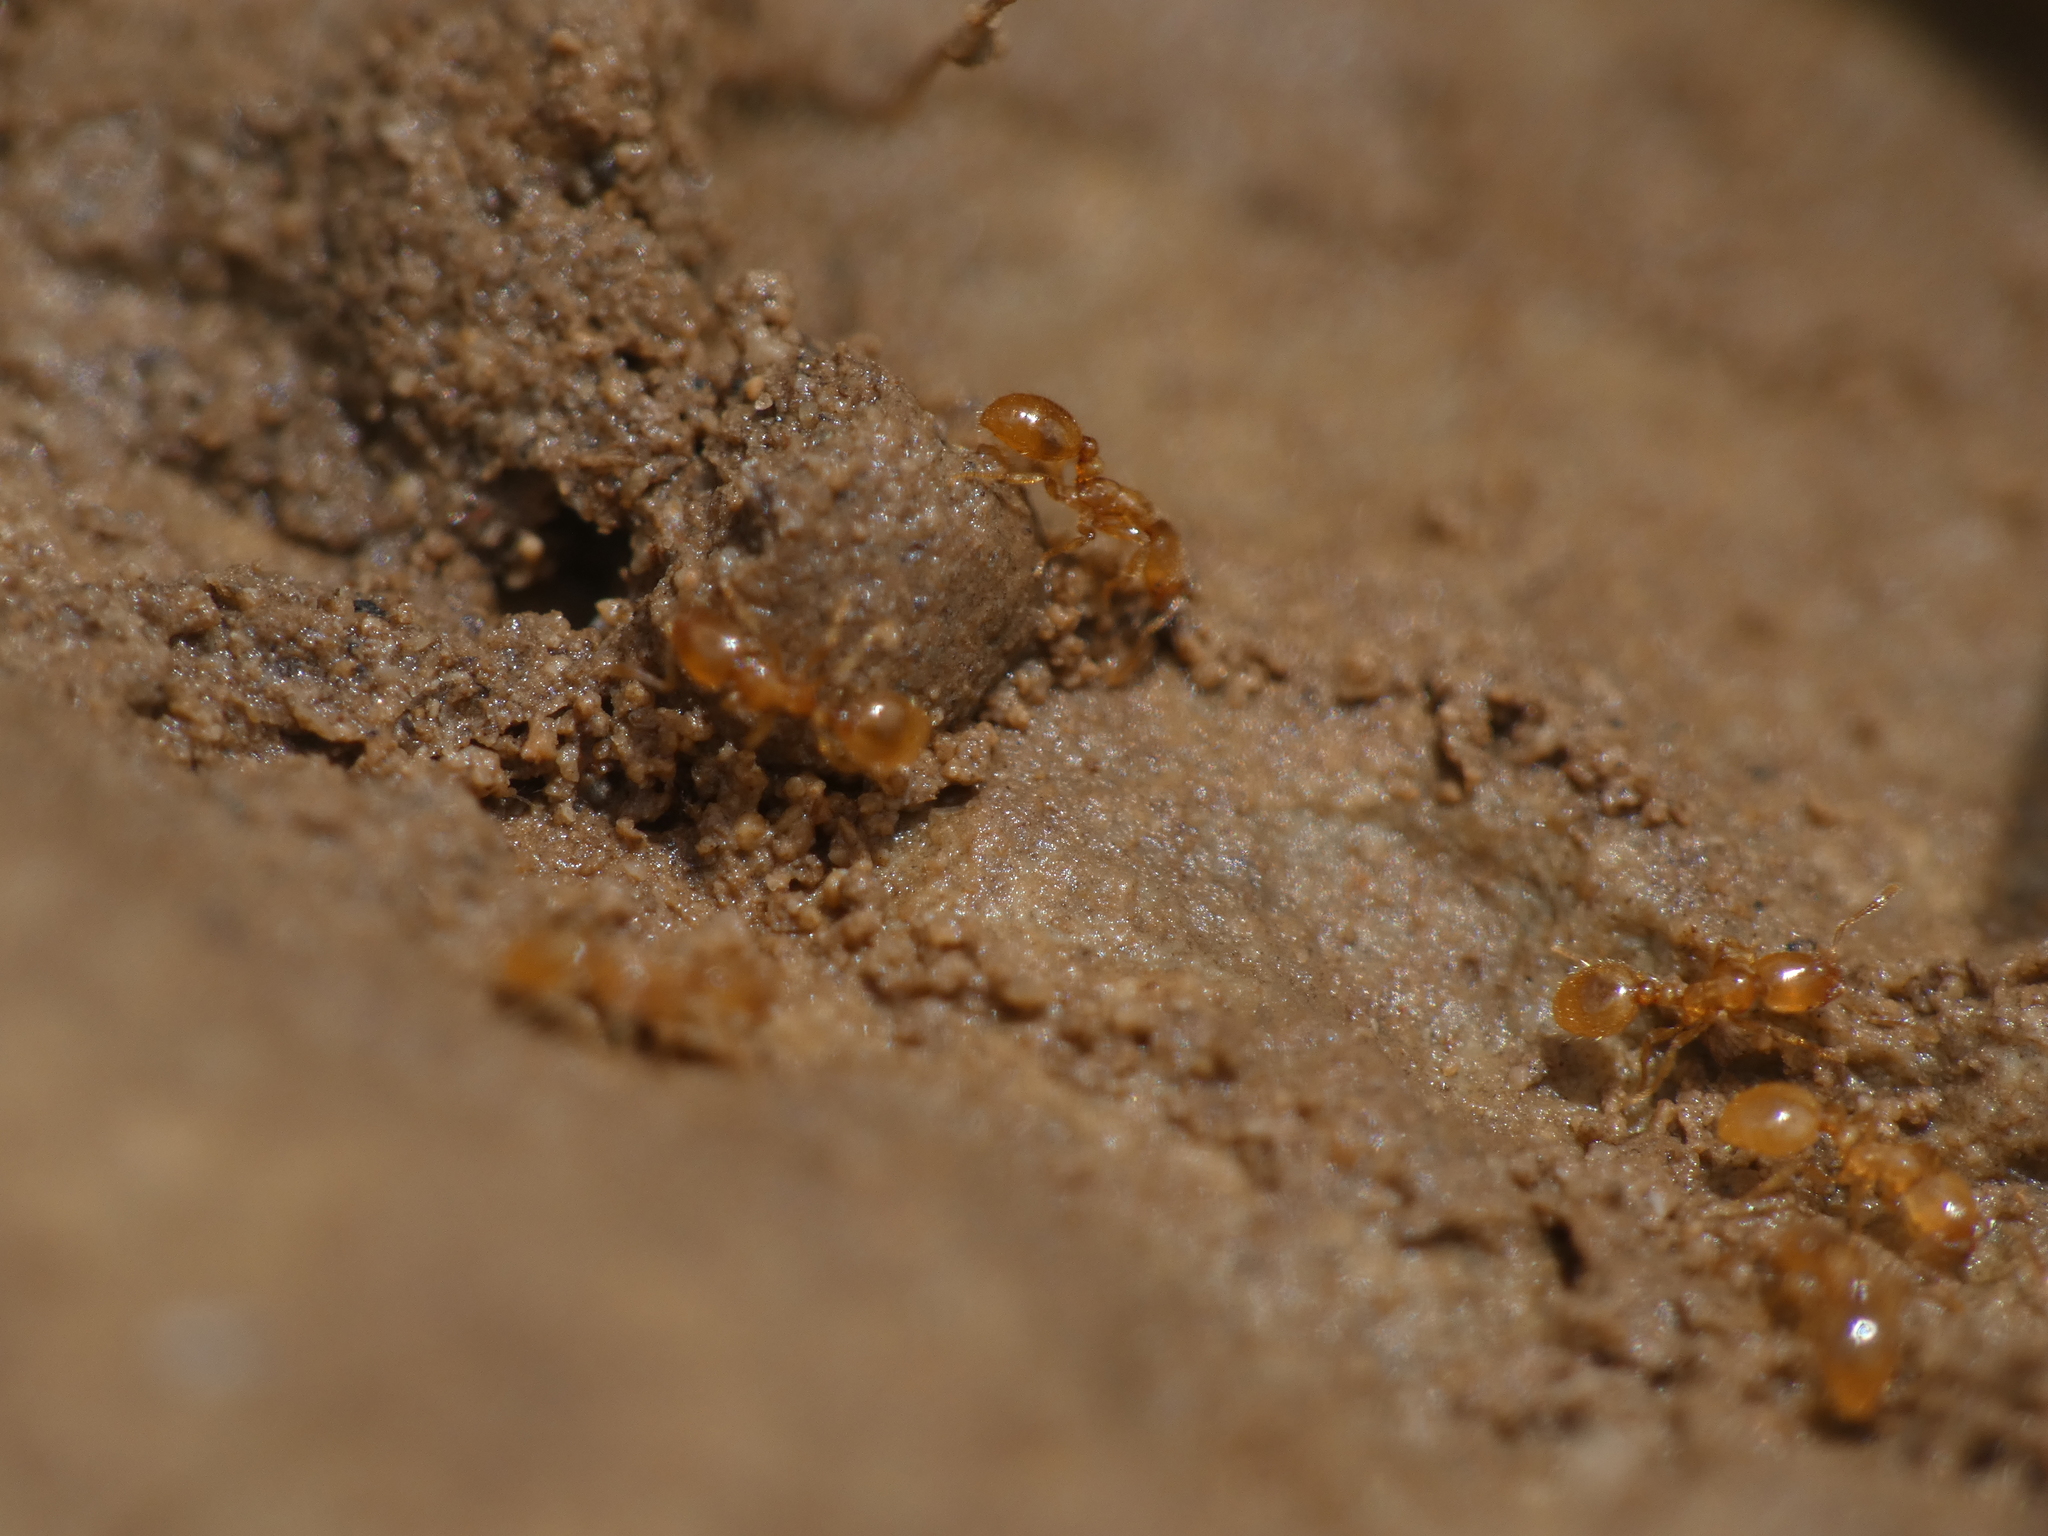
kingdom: Animalia
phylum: Arthropoda
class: Insecta
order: Hymenoptera
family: Formicidae
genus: Solenopsis
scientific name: Solenopsis fugax
